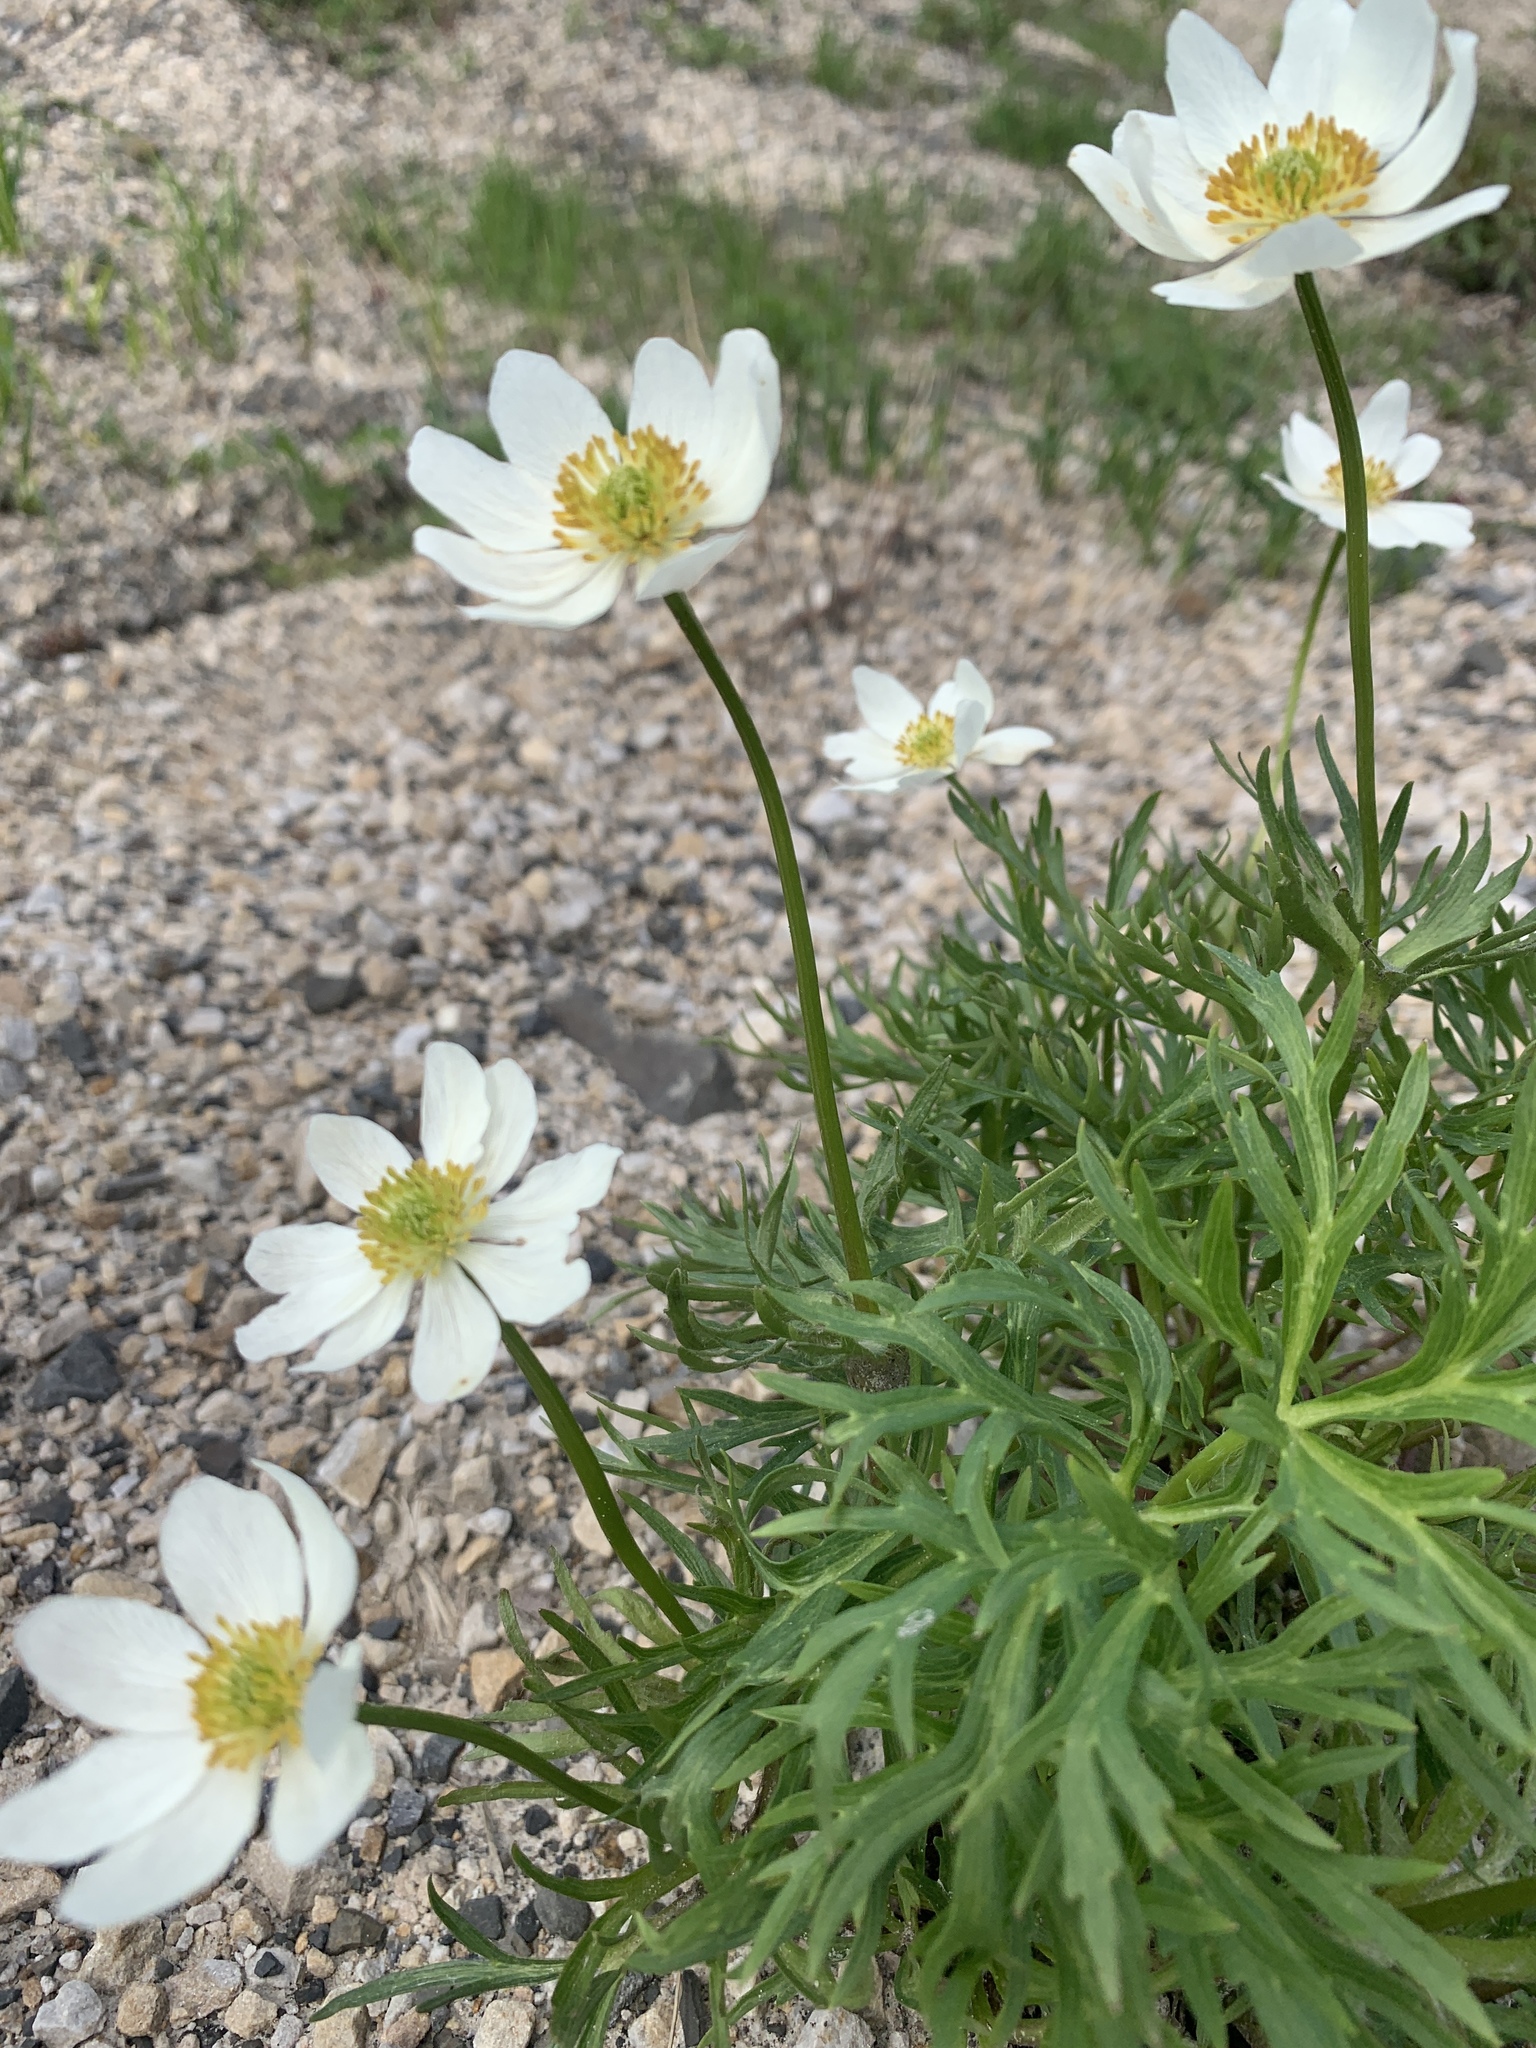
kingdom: Plantae
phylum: Tracheophyta
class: Magnoliopsida
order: Ranunculales
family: Ranunculaceae
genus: Anemonastrum
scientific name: Anemonastrum narcissiflorum
